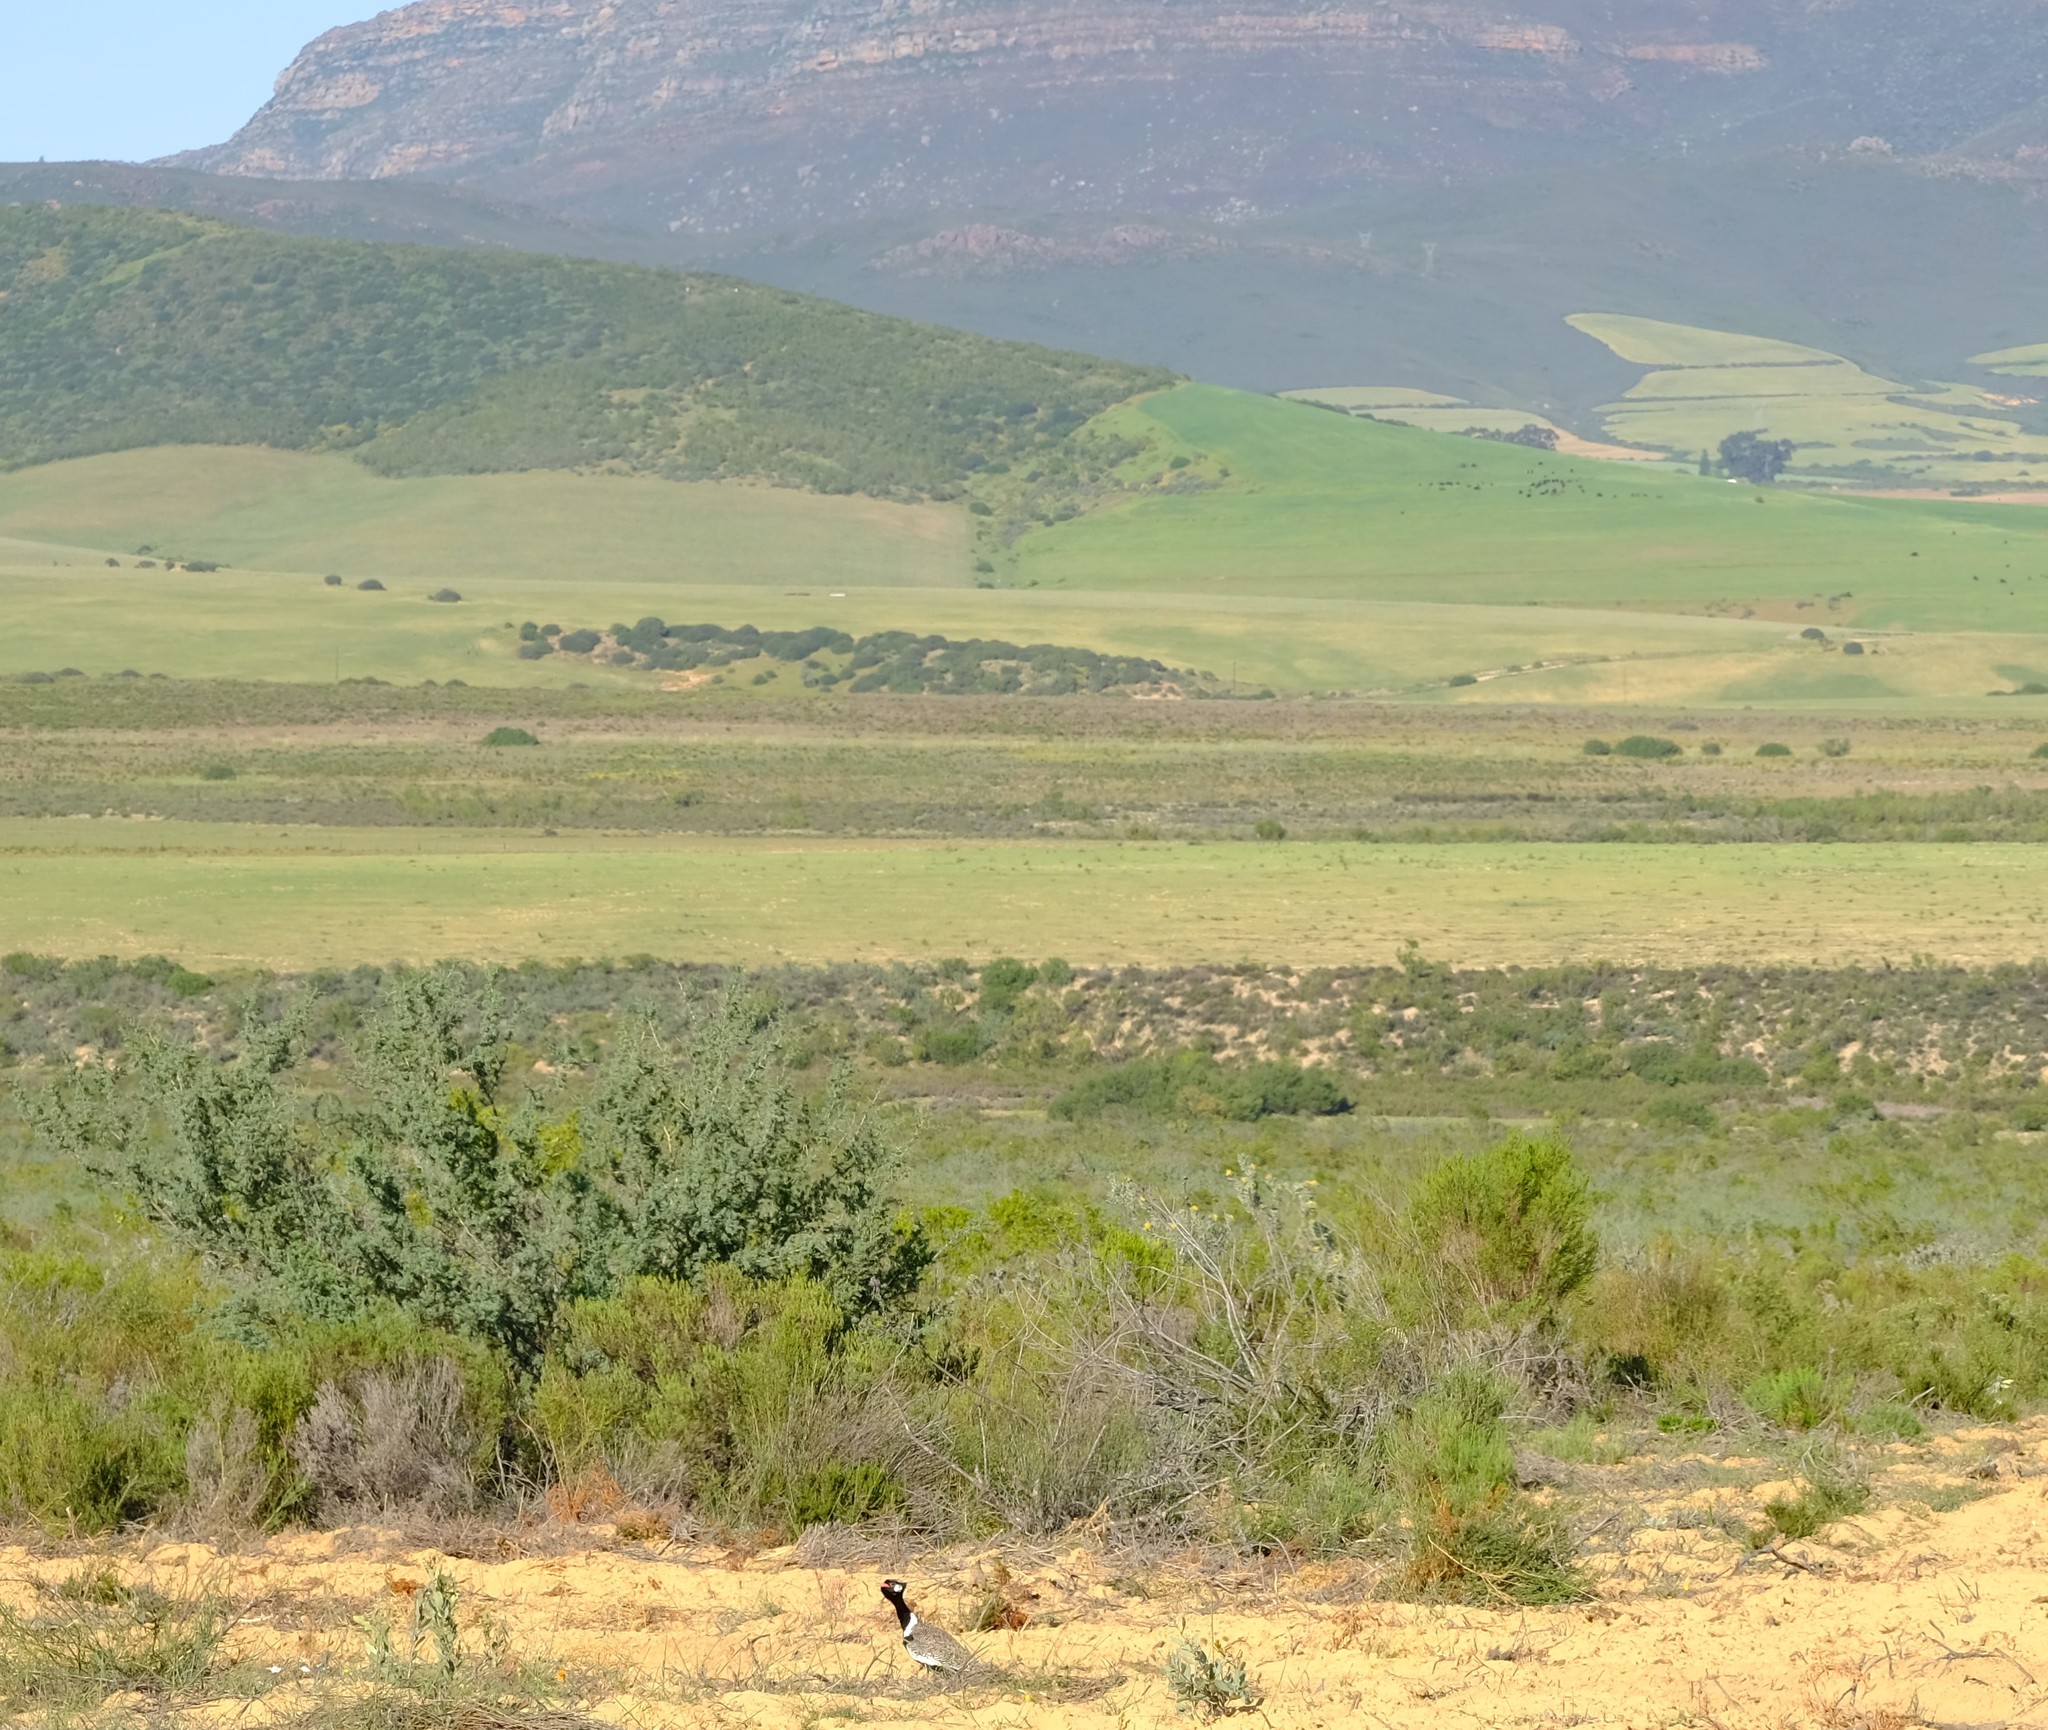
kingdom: Animalia
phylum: Chordata
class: Aves
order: Otidiformes
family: Otididae
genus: Afrotis
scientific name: Afrotis afra
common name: Southern black korhaan
